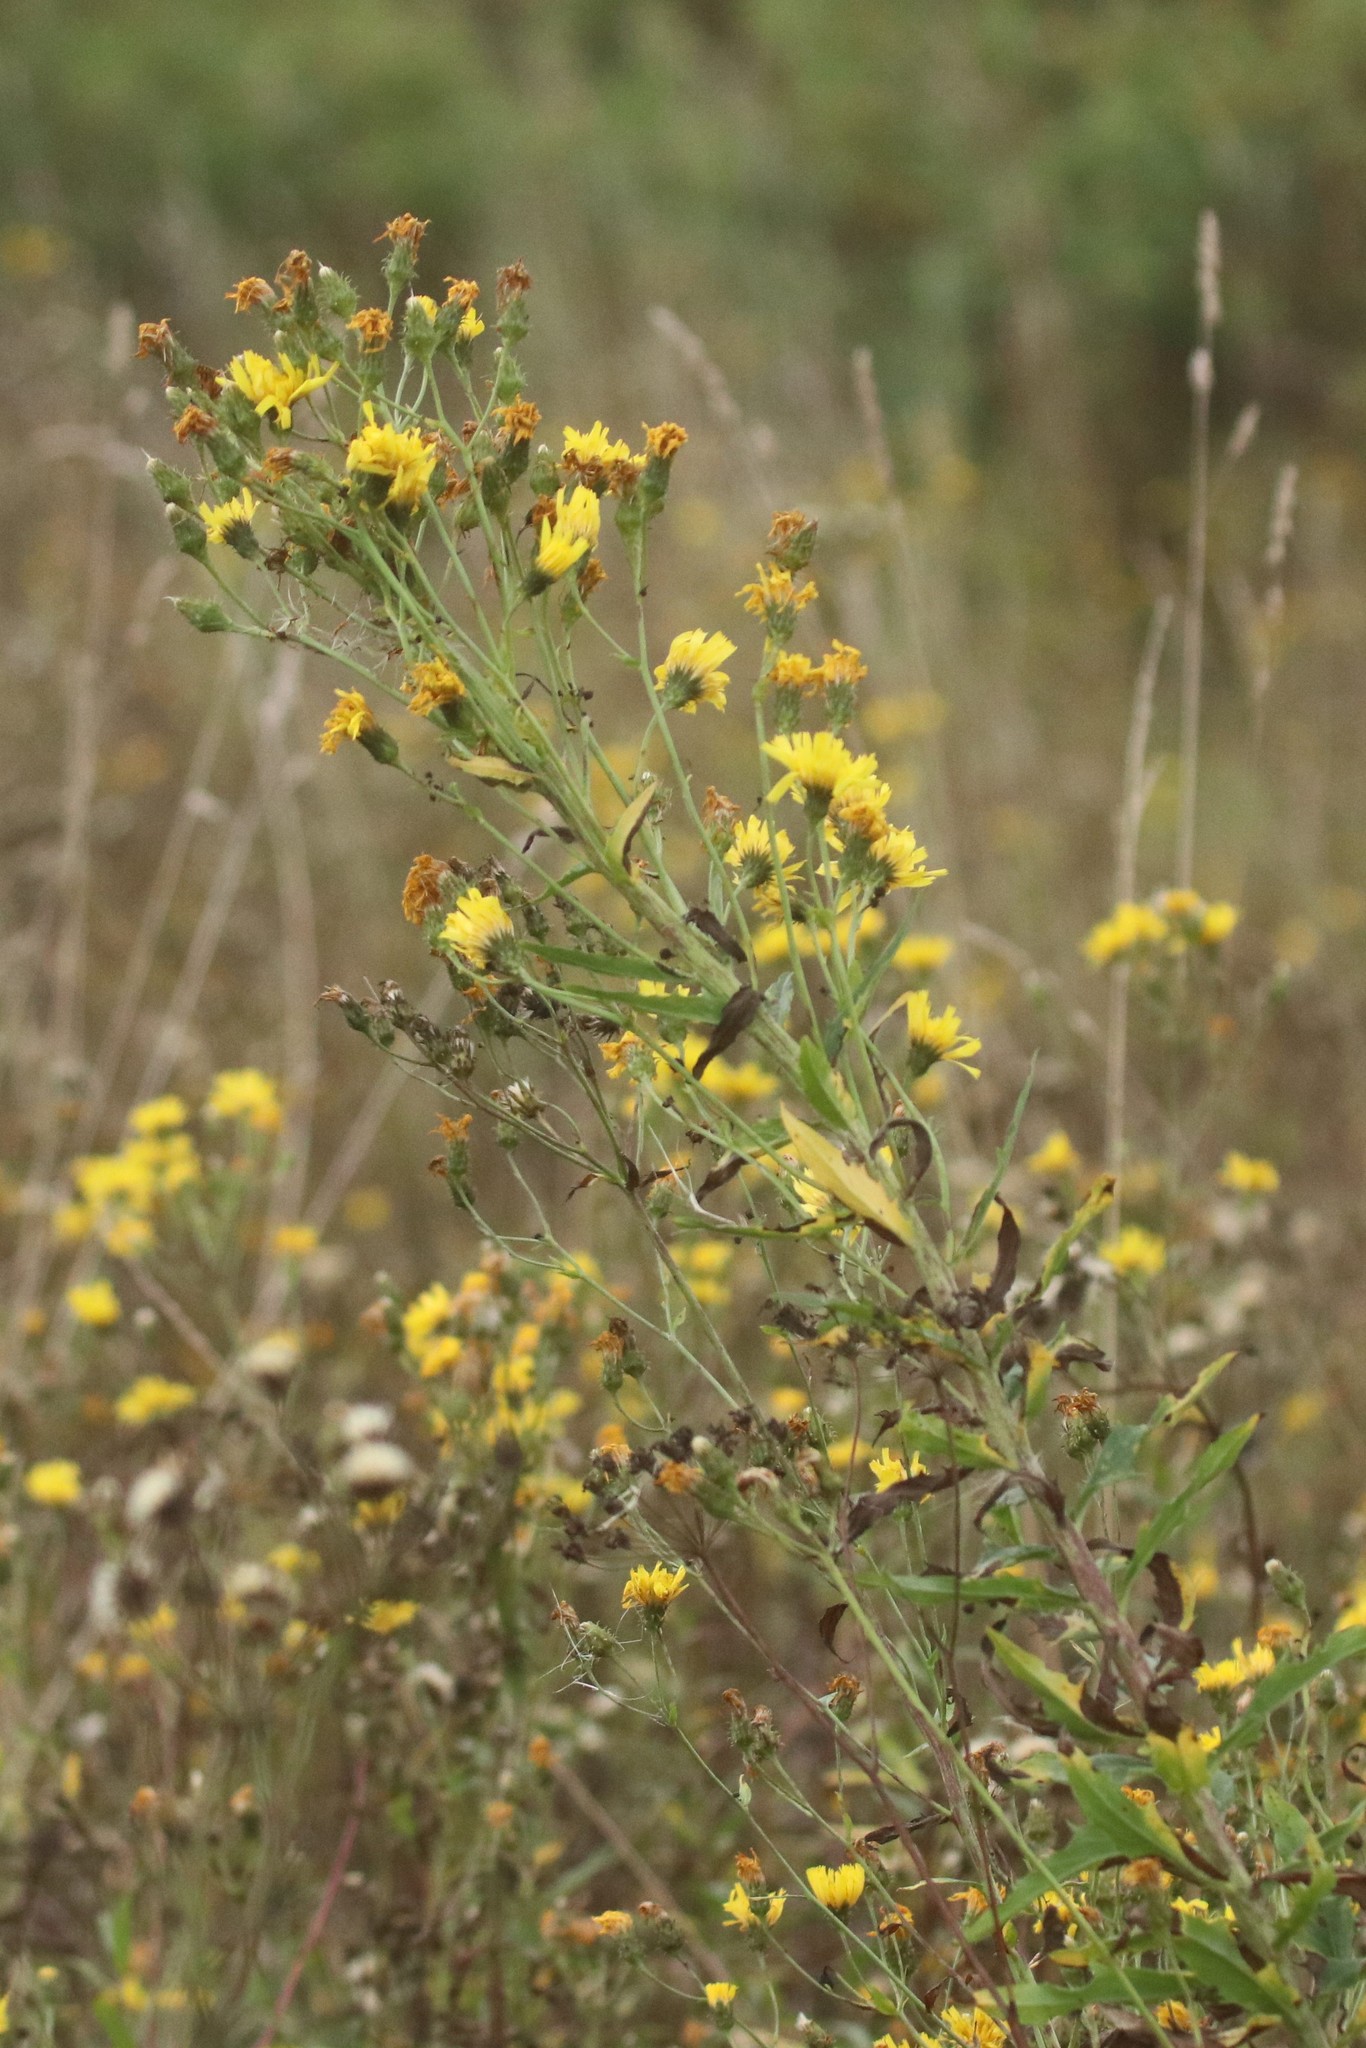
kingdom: Plantae
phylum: Tracheophyta
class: Magnoliopsida
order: Asterales
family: Asteraceae
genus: Hieracium
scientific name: Hieracium umbellatum
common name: Northern hawkweed
